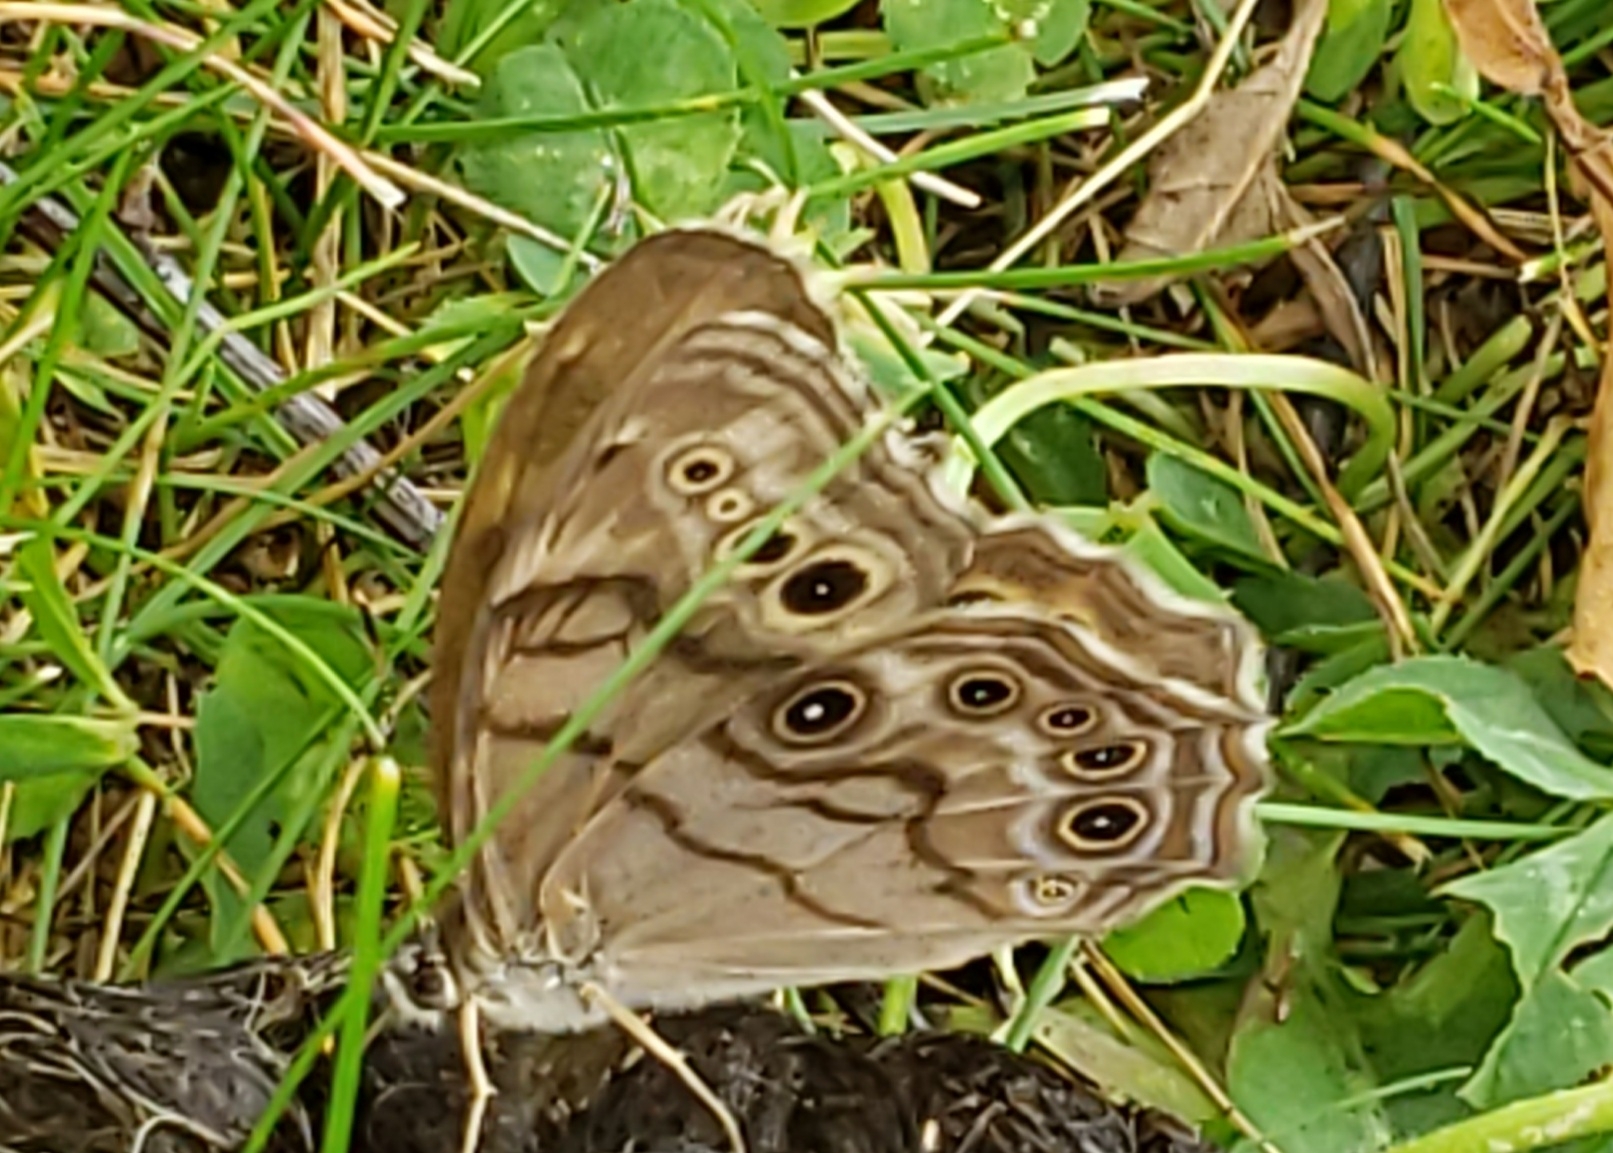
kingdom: Animalia
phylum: Arthropoda
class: Insecta
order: Lepidoptera
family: Nymphalidae
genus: Lethe
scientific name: Lethe anthedon
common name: Northern pearly-eye
